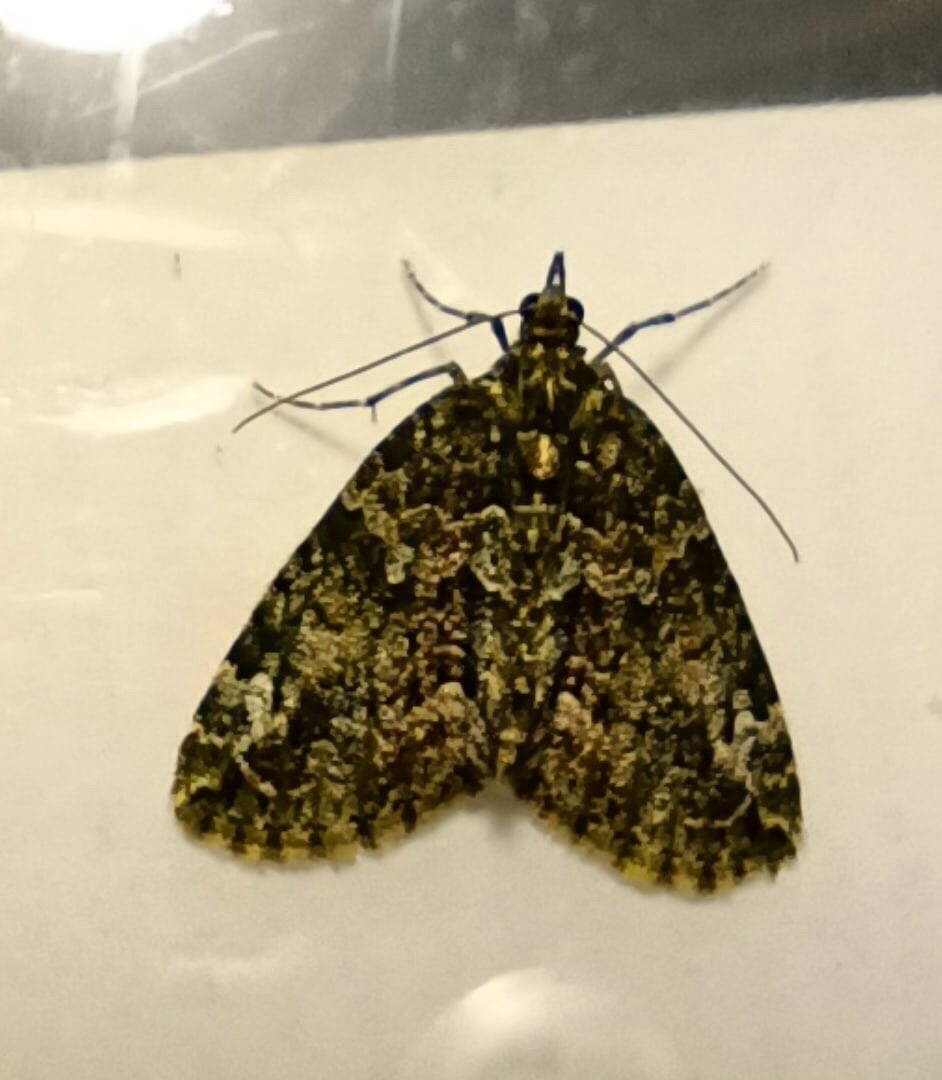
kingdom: Animalia
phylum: Arthropoda
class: Insecta
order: Lepidoptera
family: Geometridae
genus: Chloroclysta
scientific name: Chloroclysta siterata
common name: Red-green carpet
